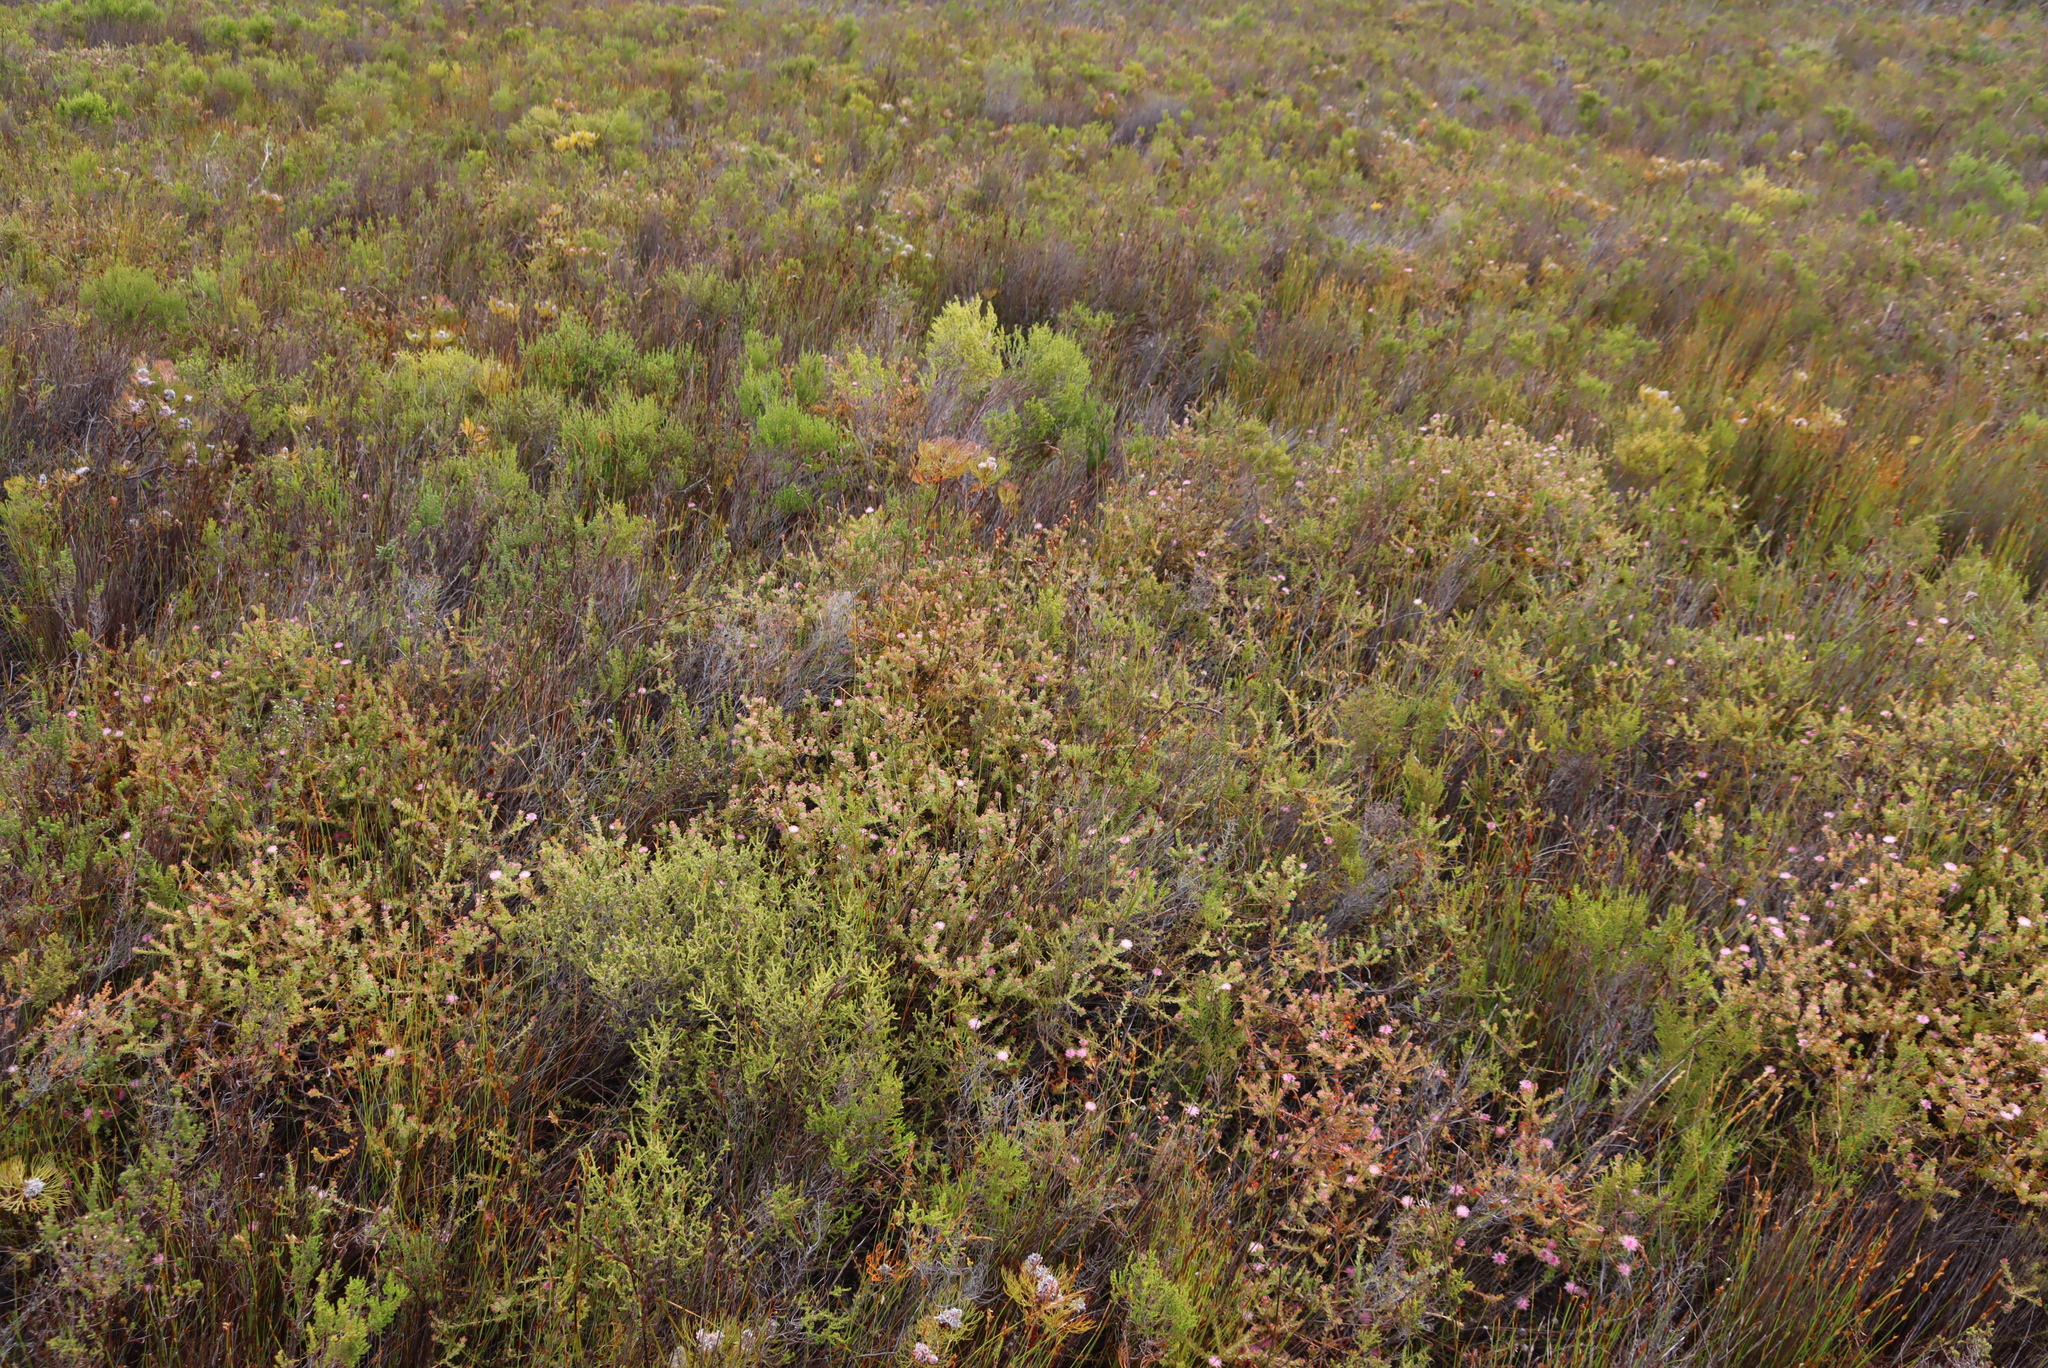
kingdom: Plantae
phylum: Tracheophyta
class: Magnoliopsida
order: Proteales
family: Proteaceae
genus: Diastella
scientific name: Diastella divaricata
